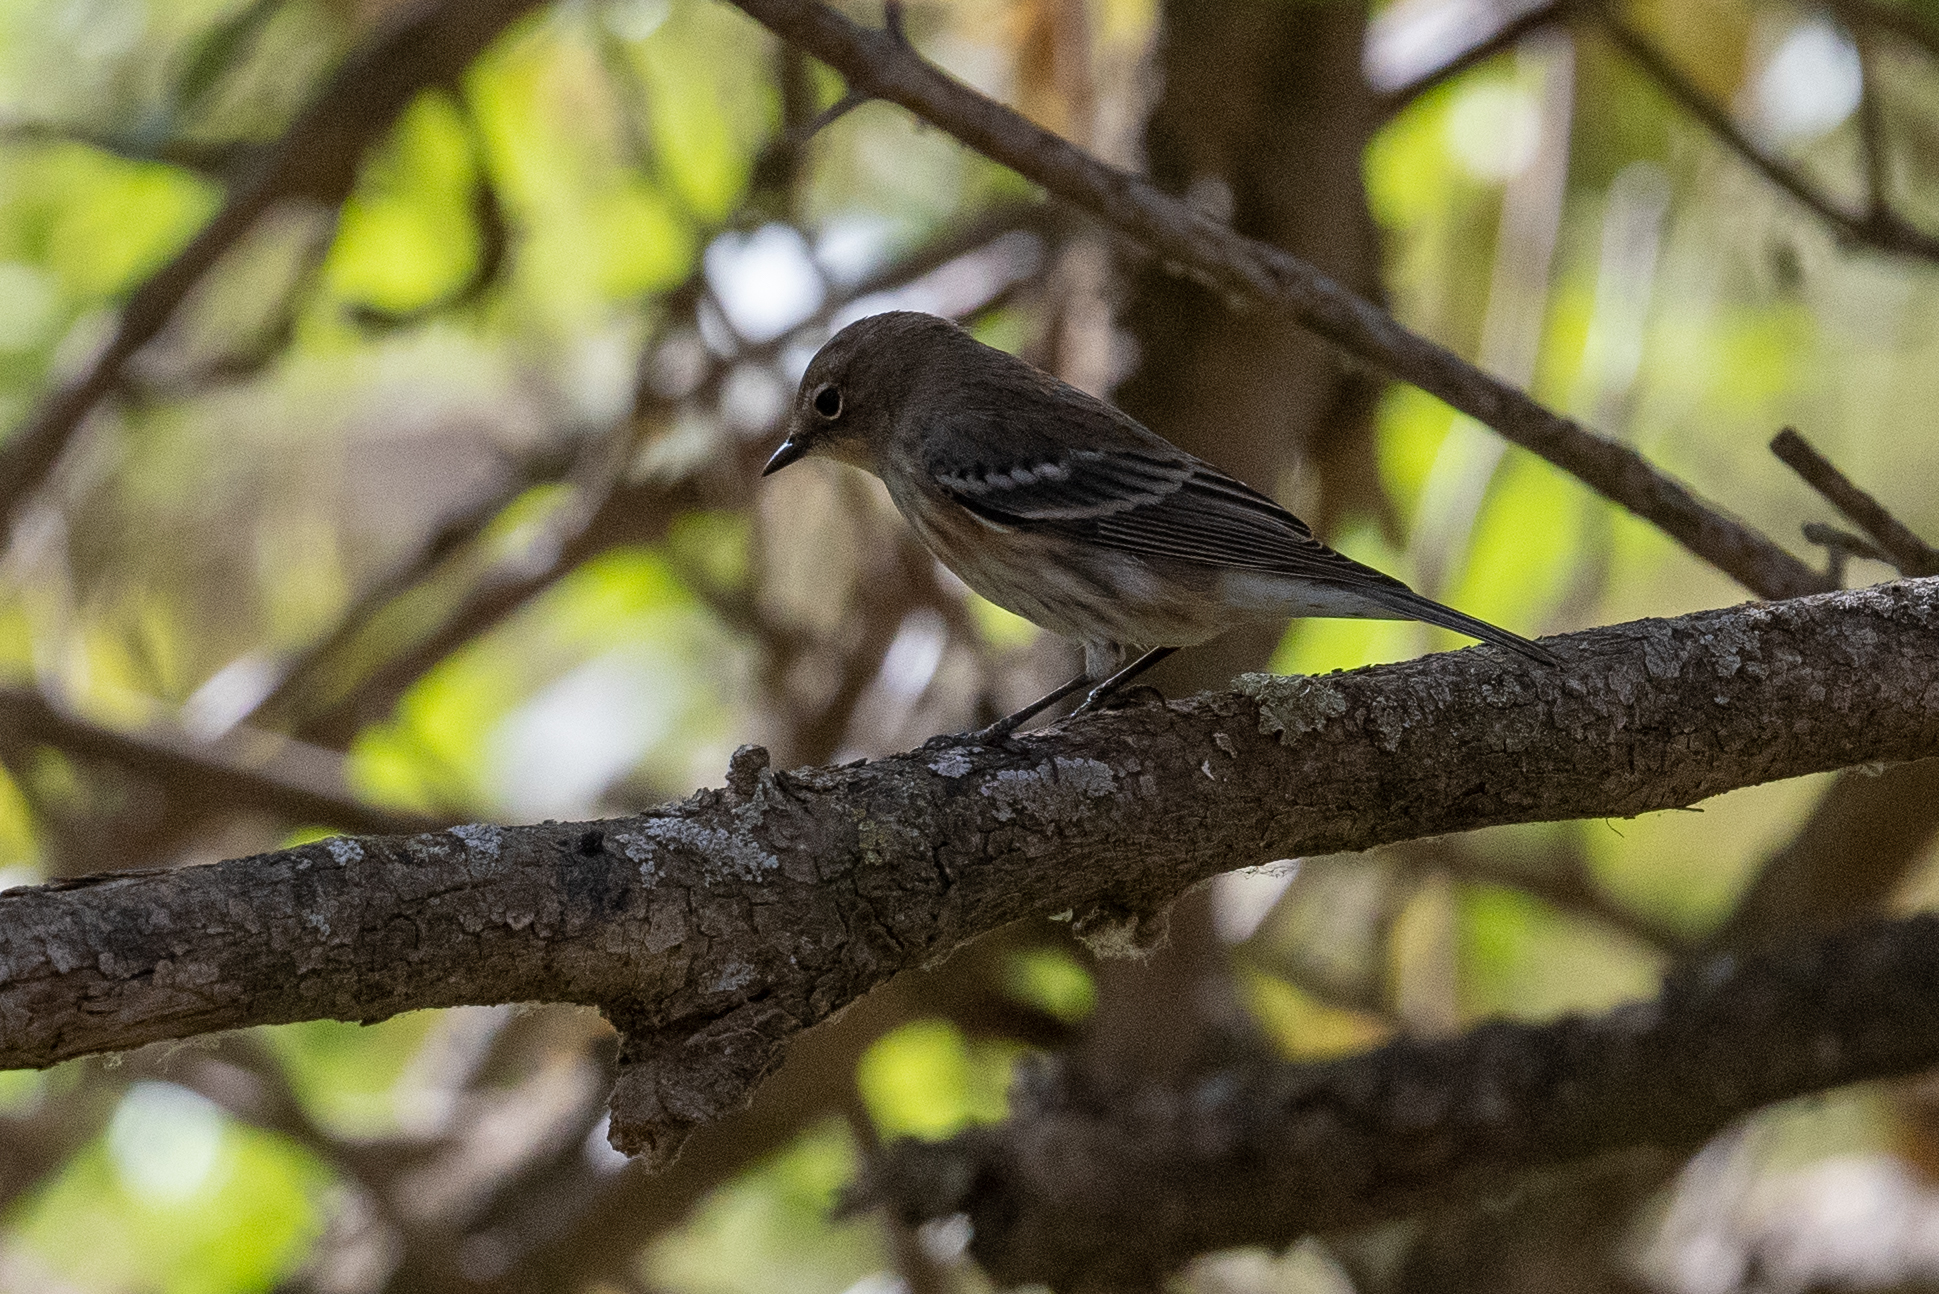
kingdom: Animalia
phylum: Chordata
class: Aves
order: Passeriformes
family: Parulidae
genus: Setophaga
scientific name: Setophaga coronata
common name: Myrtle warbler
